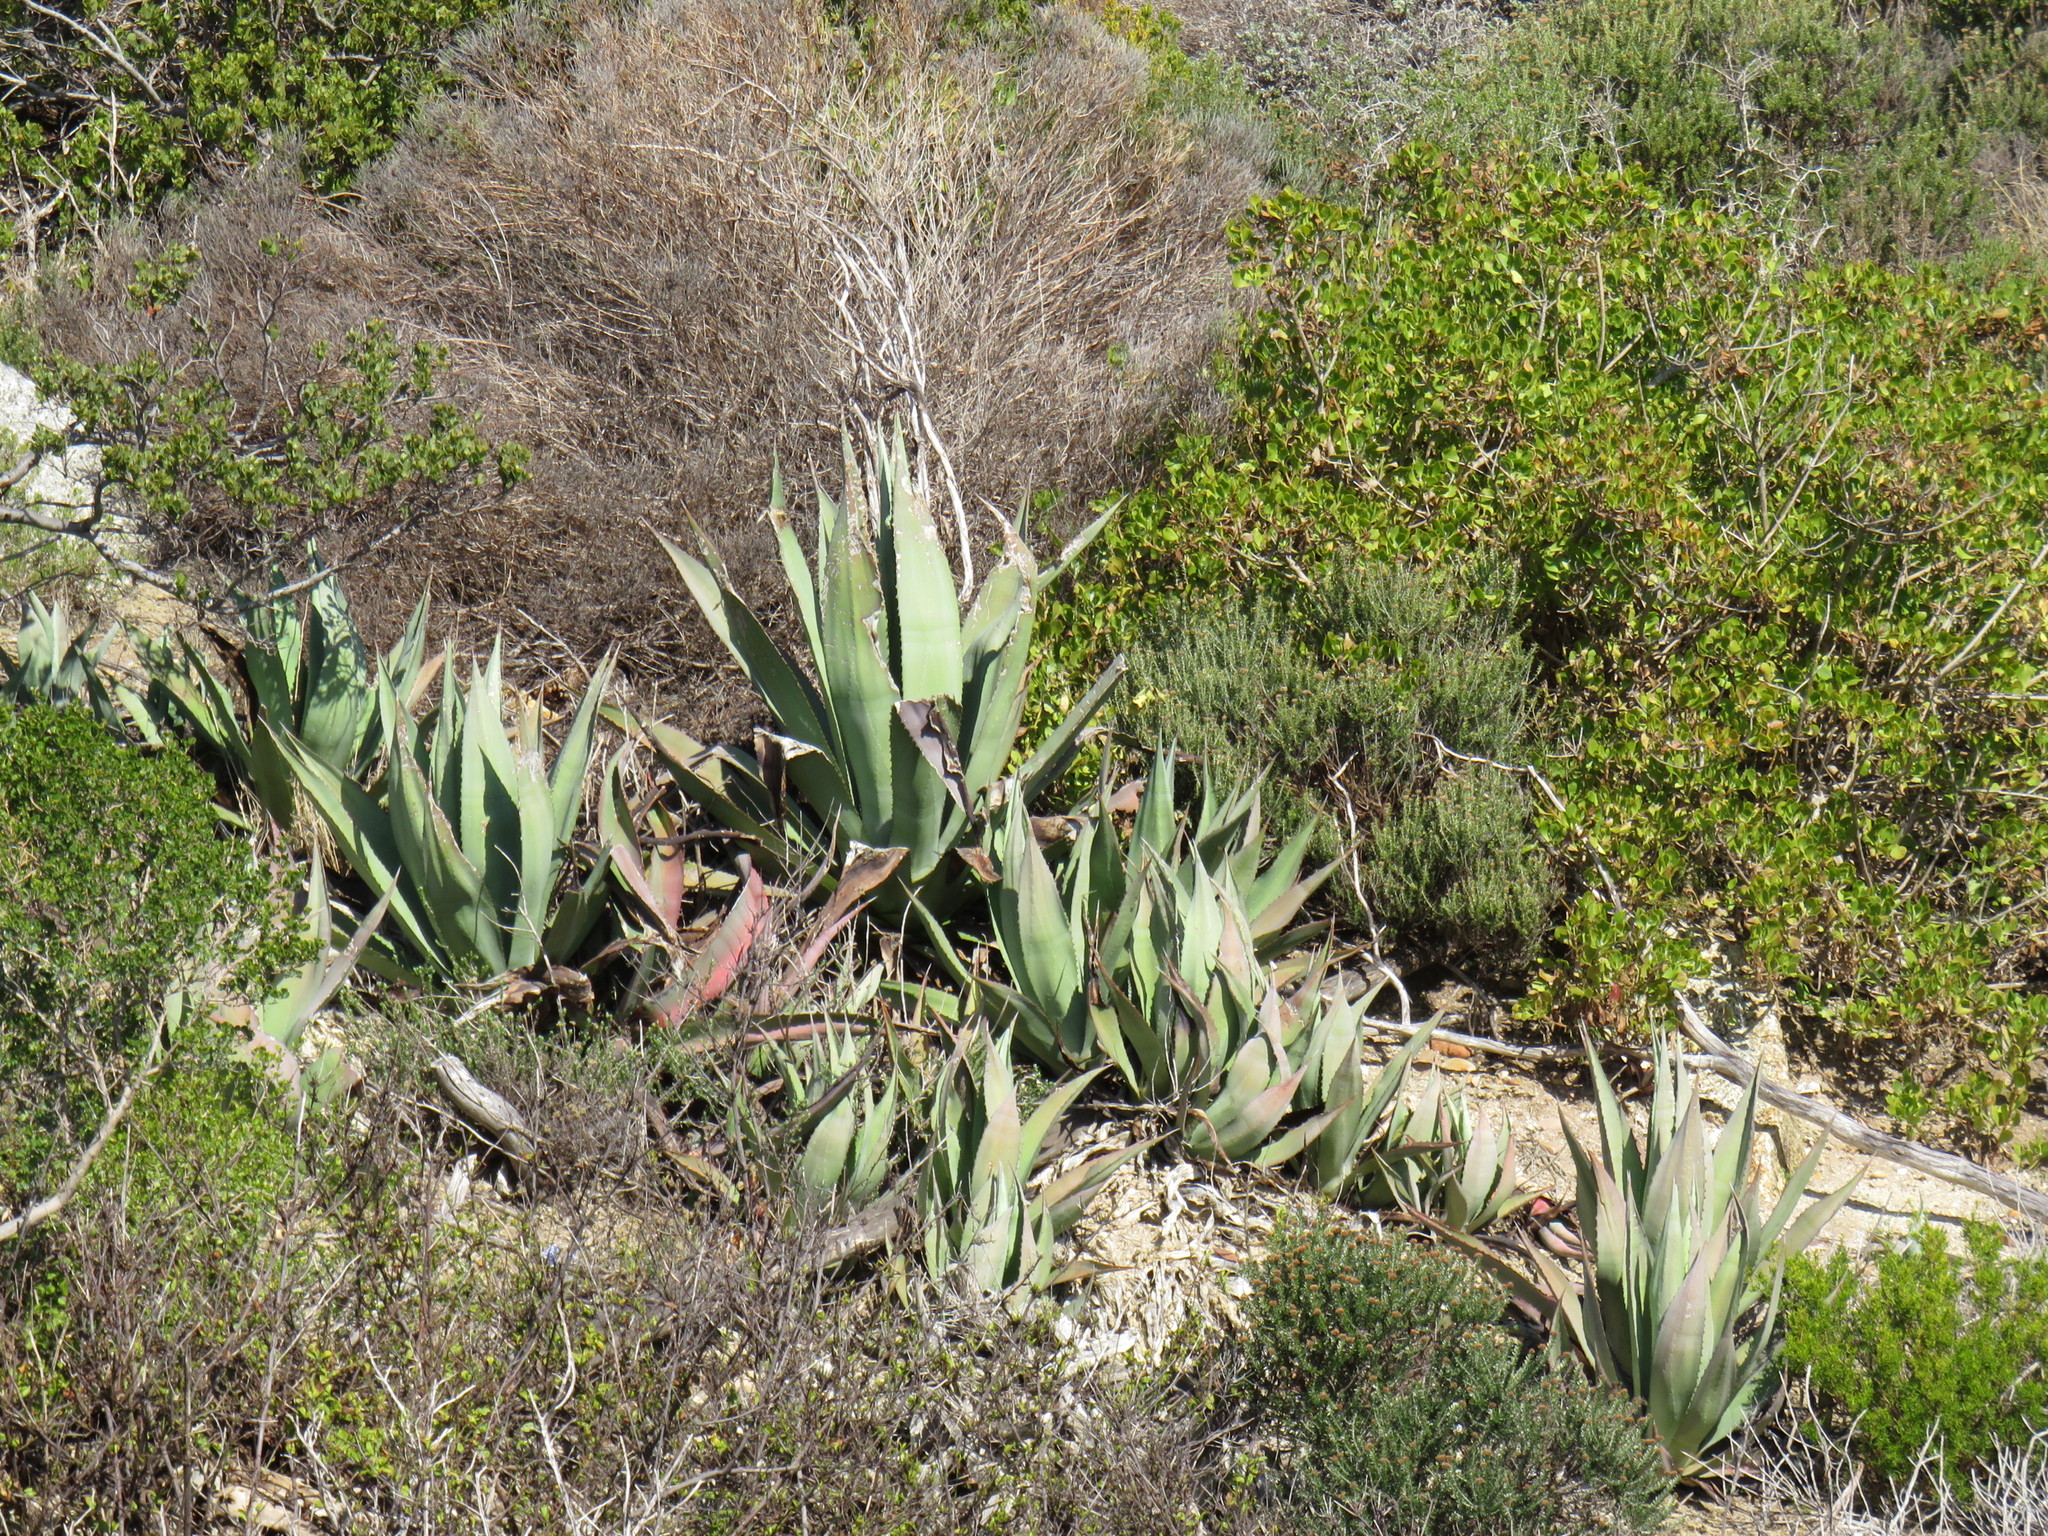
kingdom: Plantae
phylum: Tracheophyta
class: Liliopsida
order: Asparagales
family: Asparagaceae
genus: Agave
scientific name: Agave americana
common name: Centuryplant
